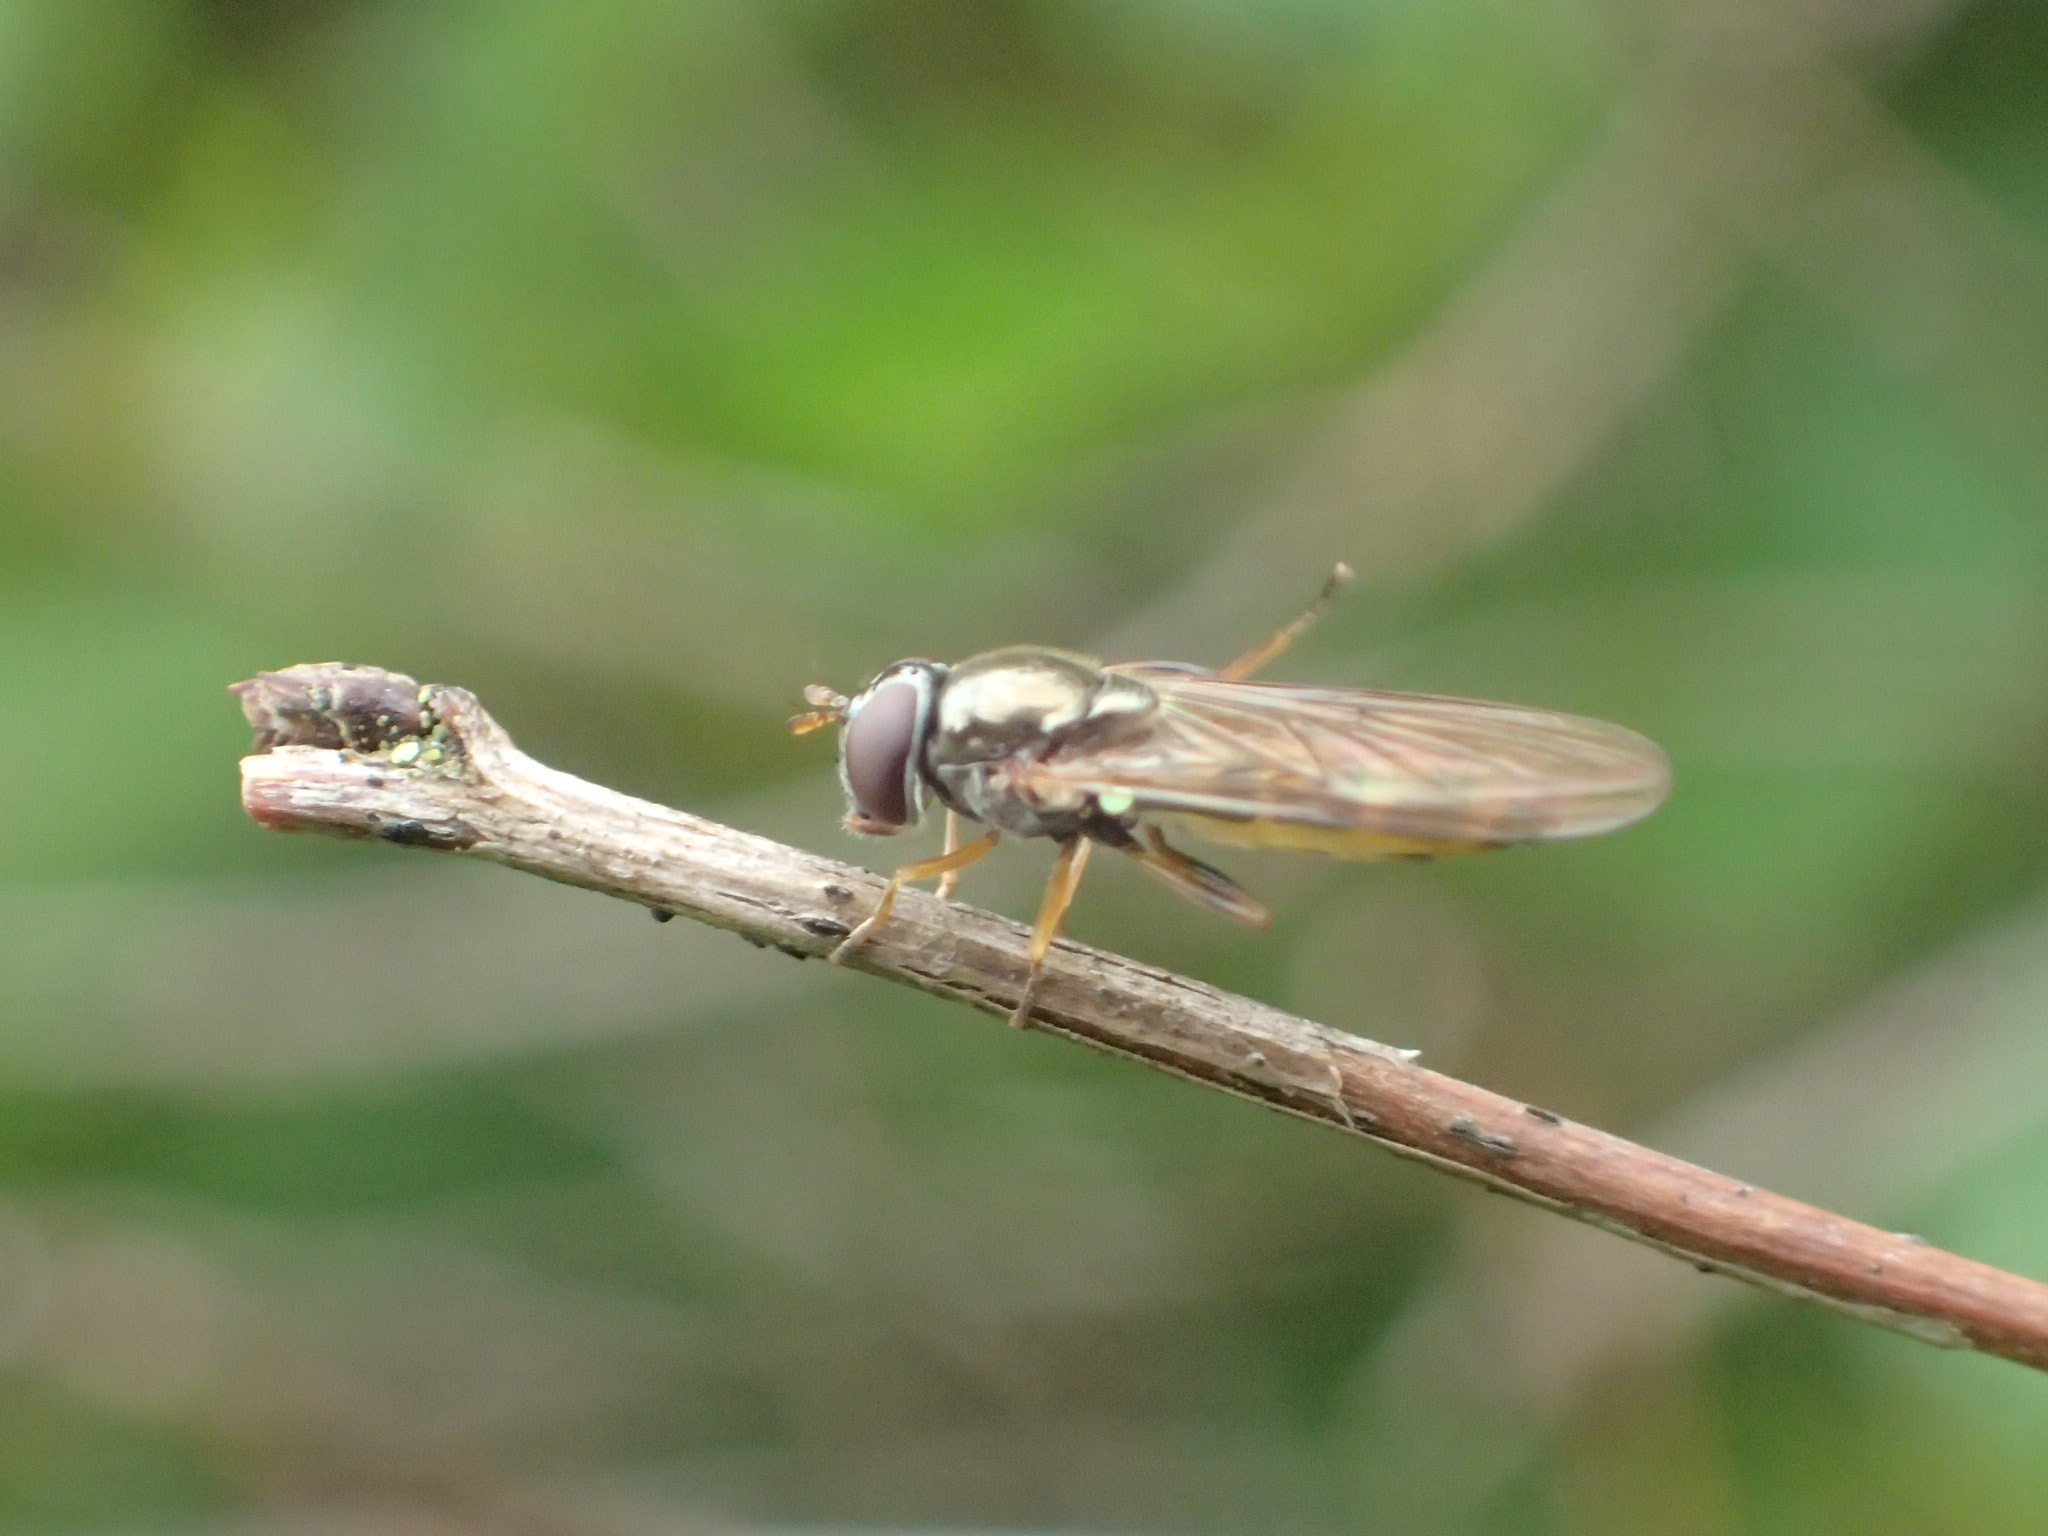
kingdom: Animalia
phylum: Arthropoda
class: Insecta
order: Diptera
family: Syrphidae
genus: Melanostoma
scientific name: Melanostoma mellina
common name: Hover fly
